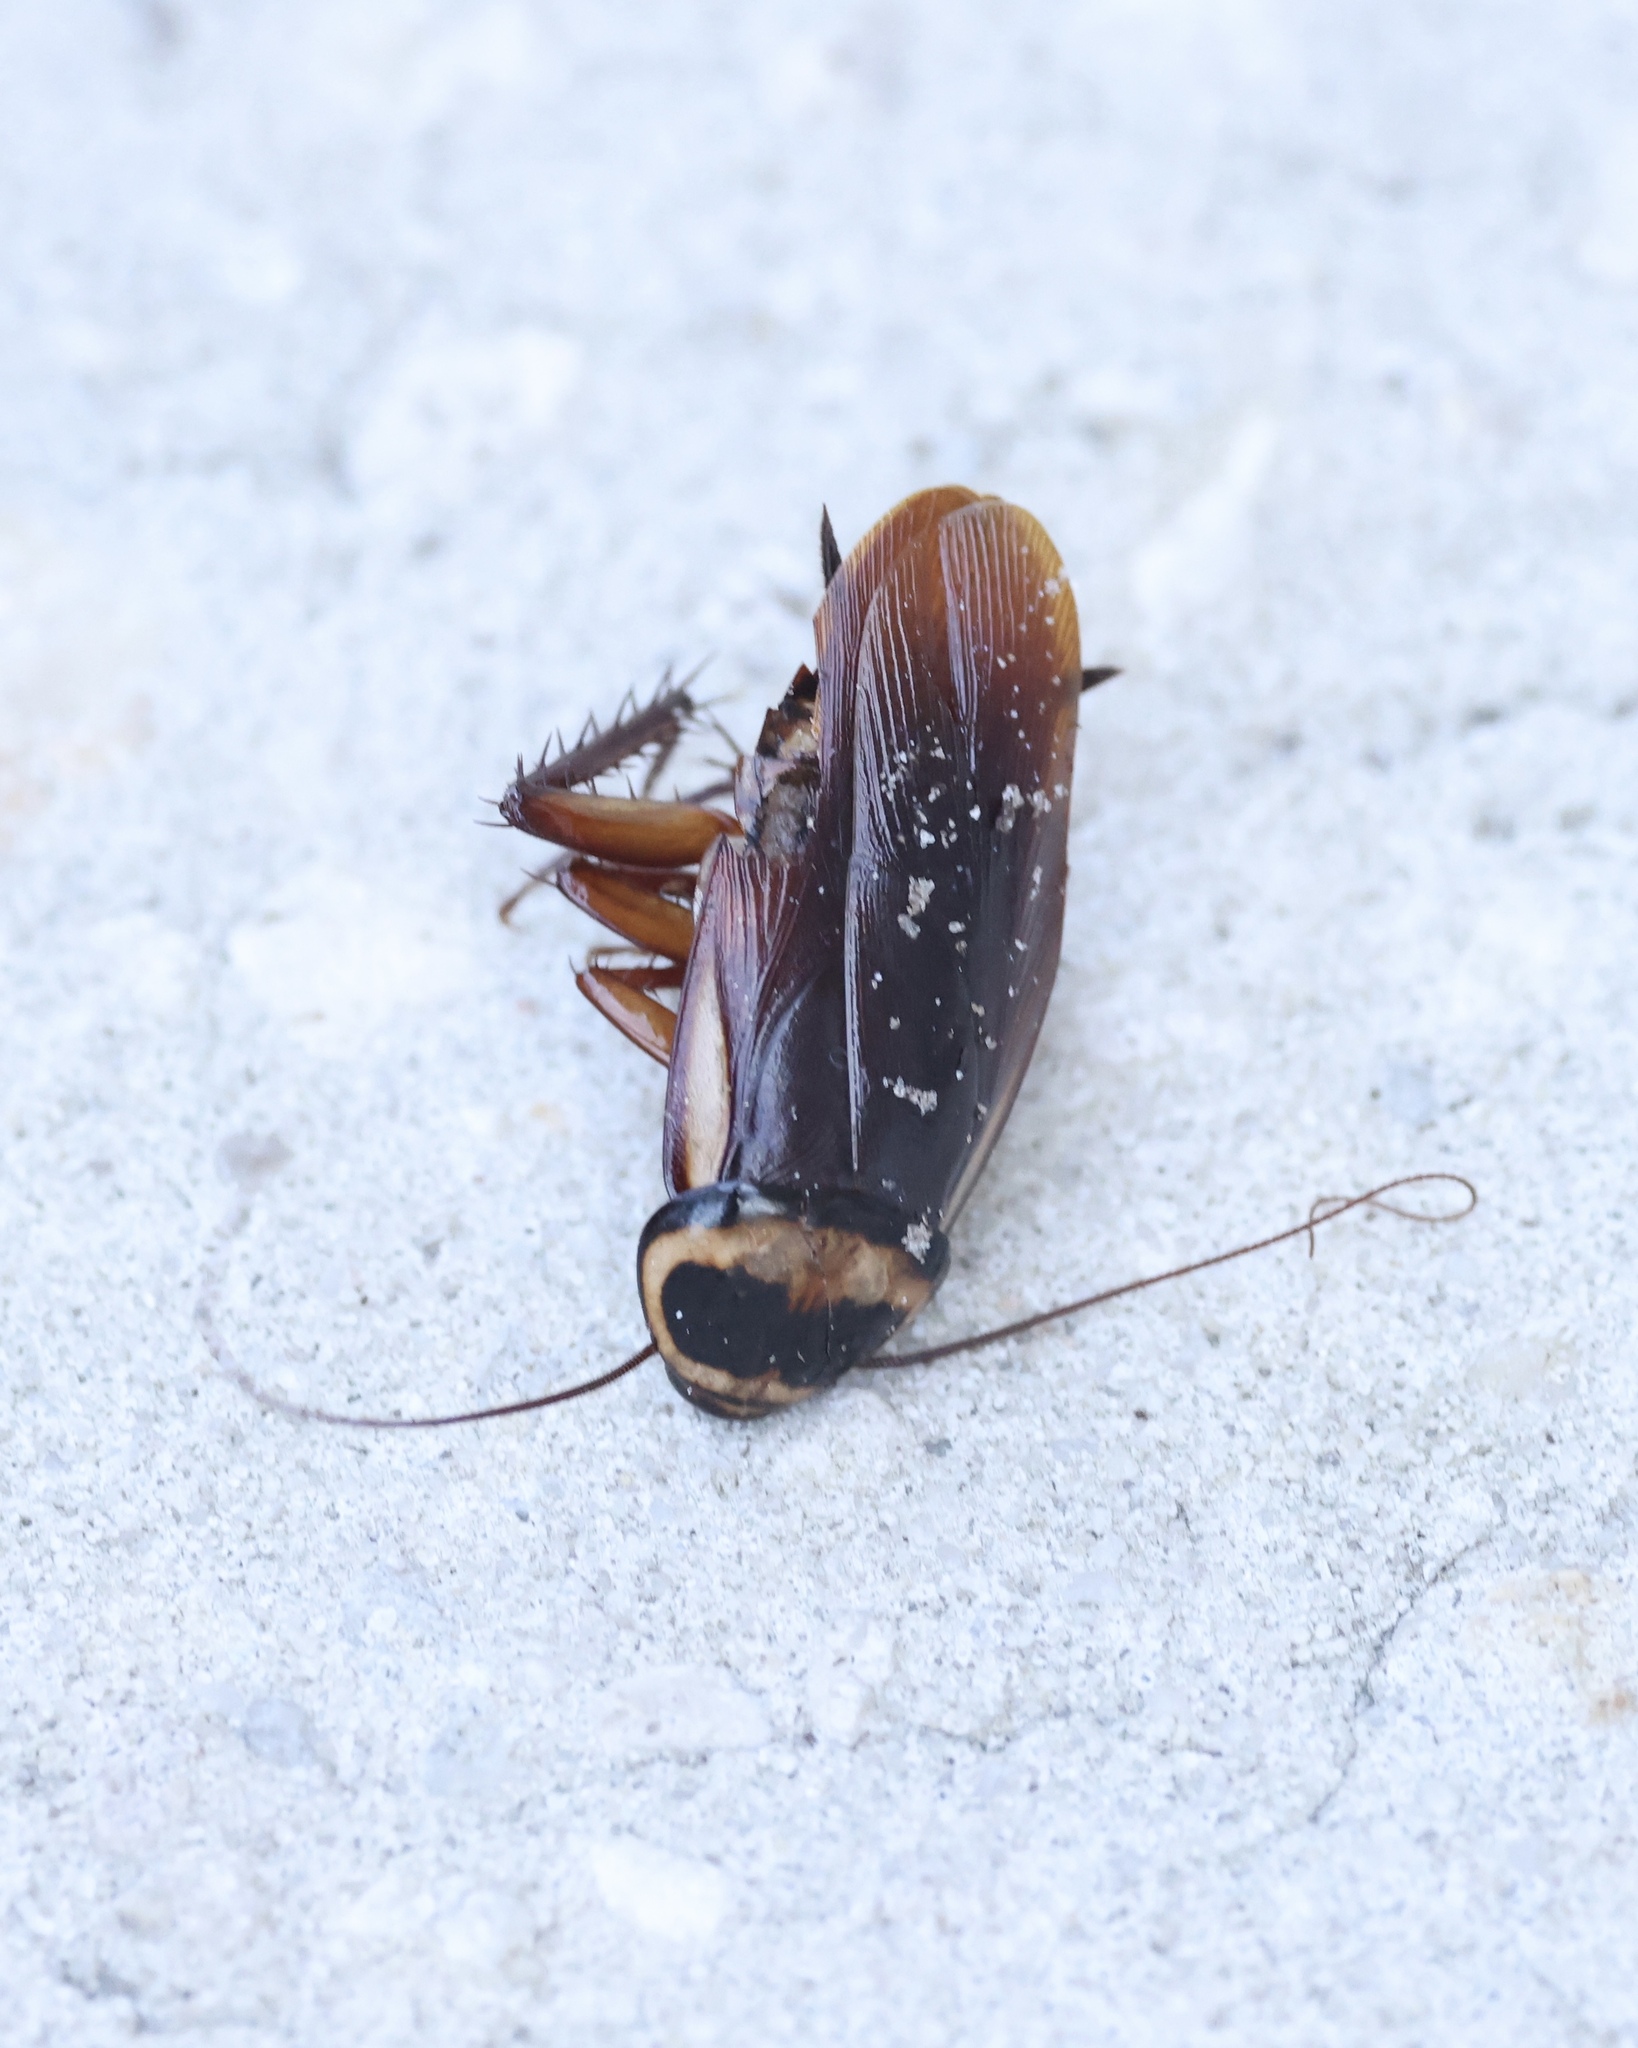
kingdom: Animalia
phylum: Arthropoda
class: Insecta
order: Blattodea
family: Blattidae
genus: Periplaneta
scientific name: Periplaneta australasiae
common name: Australian cockroach
